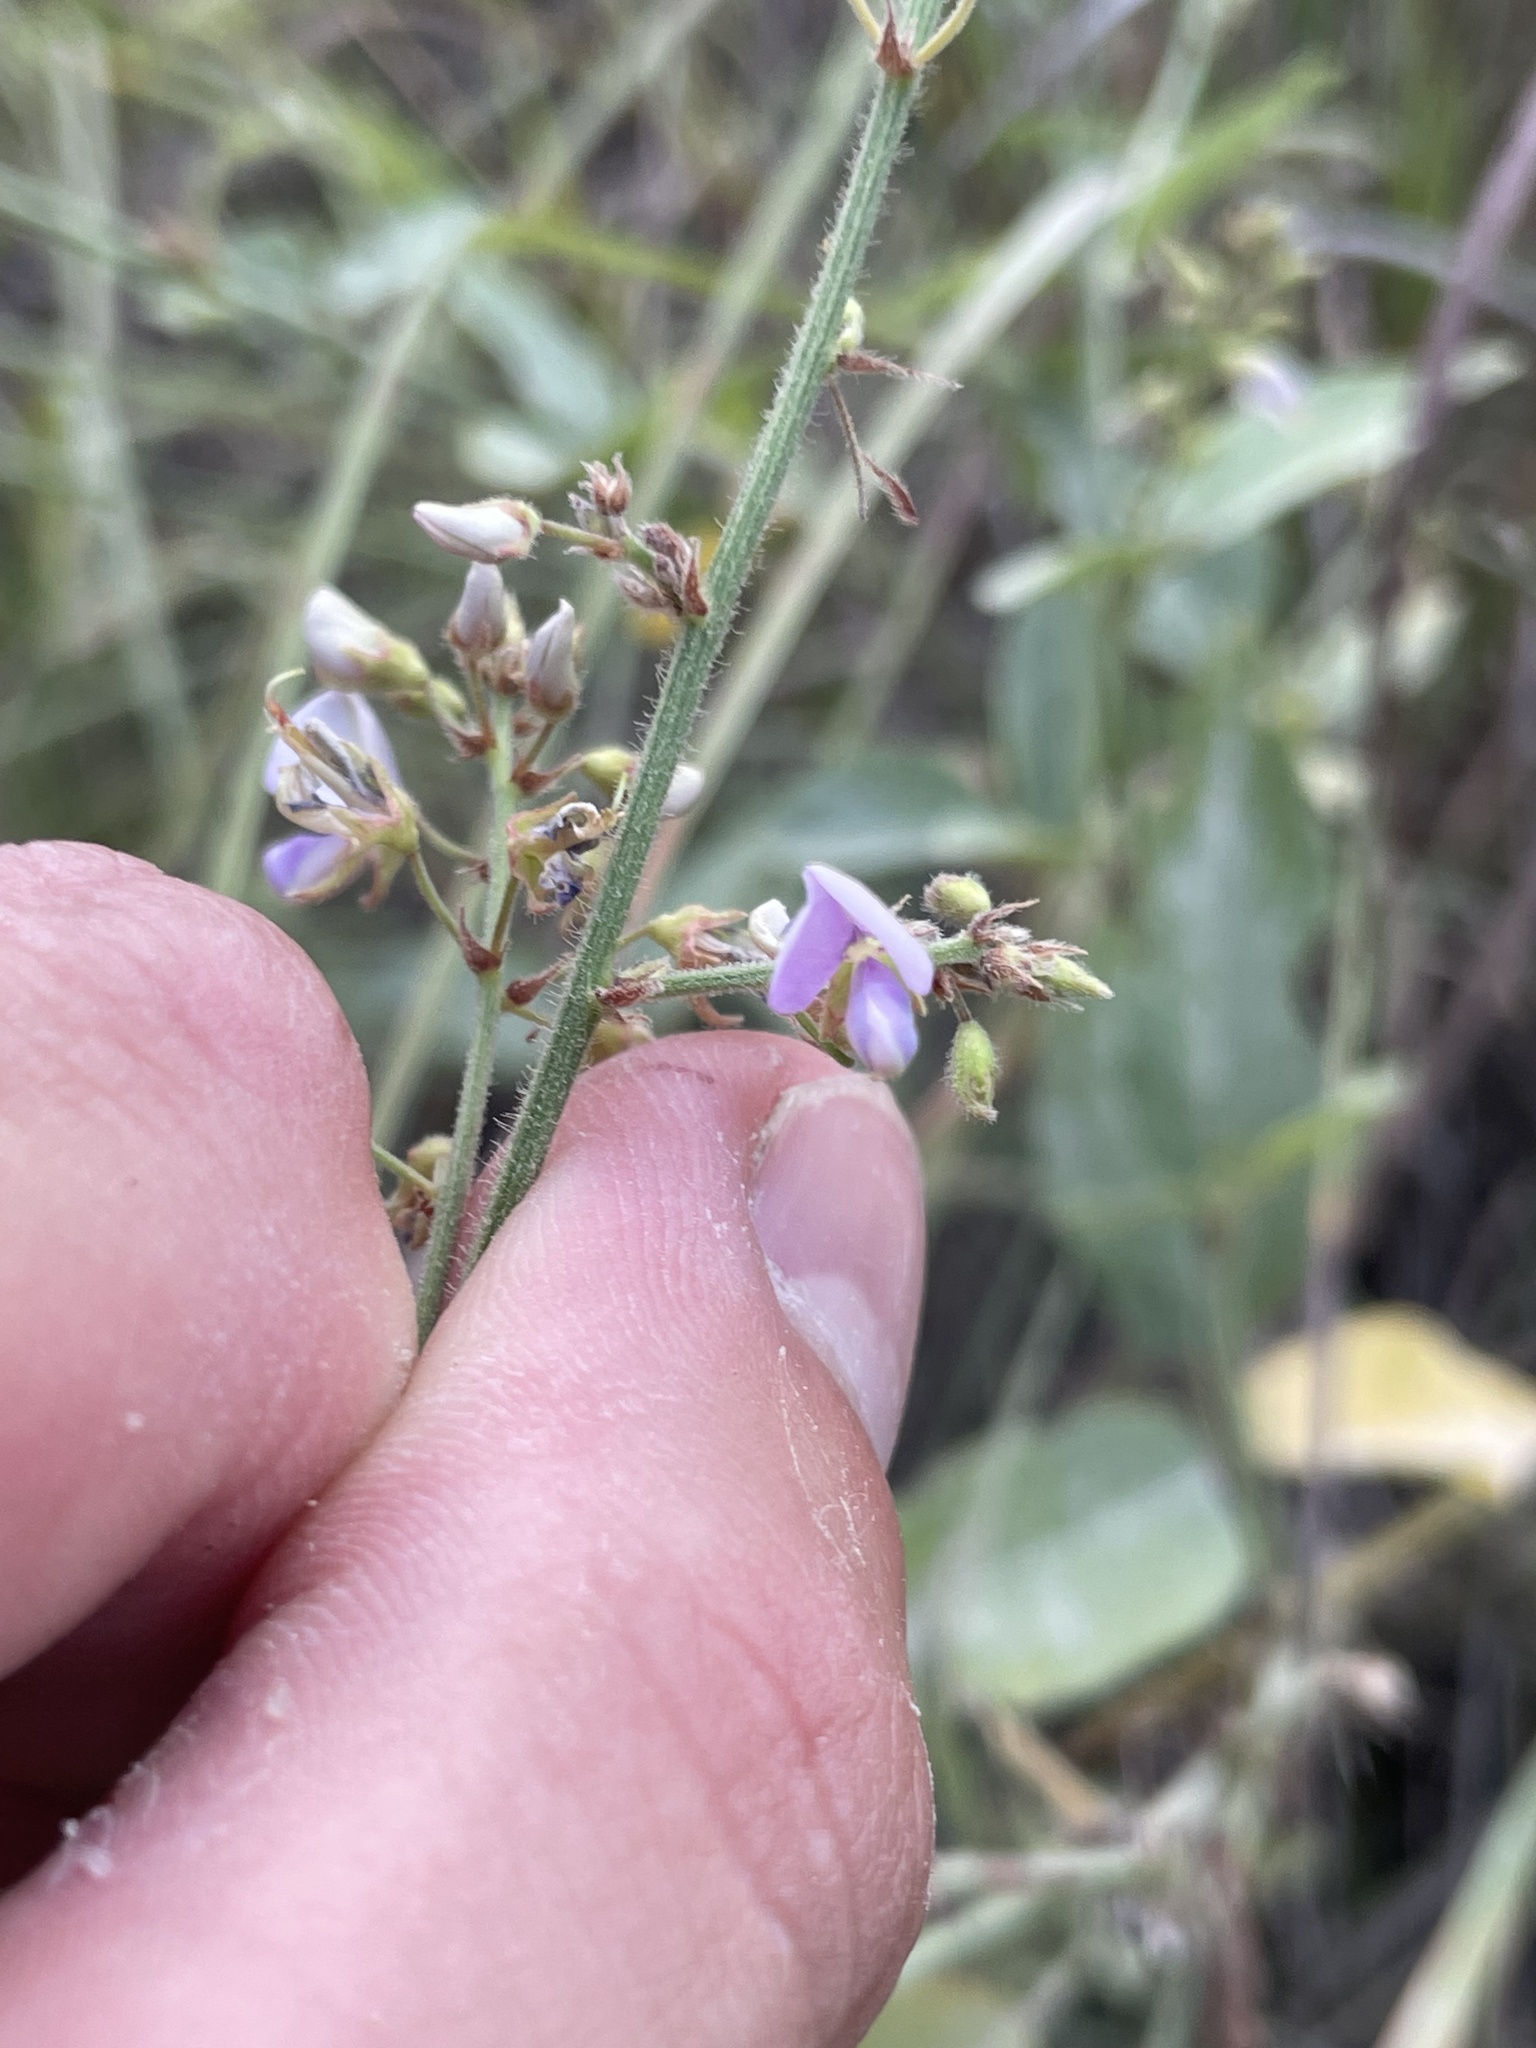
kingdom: Plantae
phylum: Tracheophyta
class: Magnoliopsida
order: Fabales
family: Fabaceae
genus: Desmodium
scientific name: Desmodium glabellum
